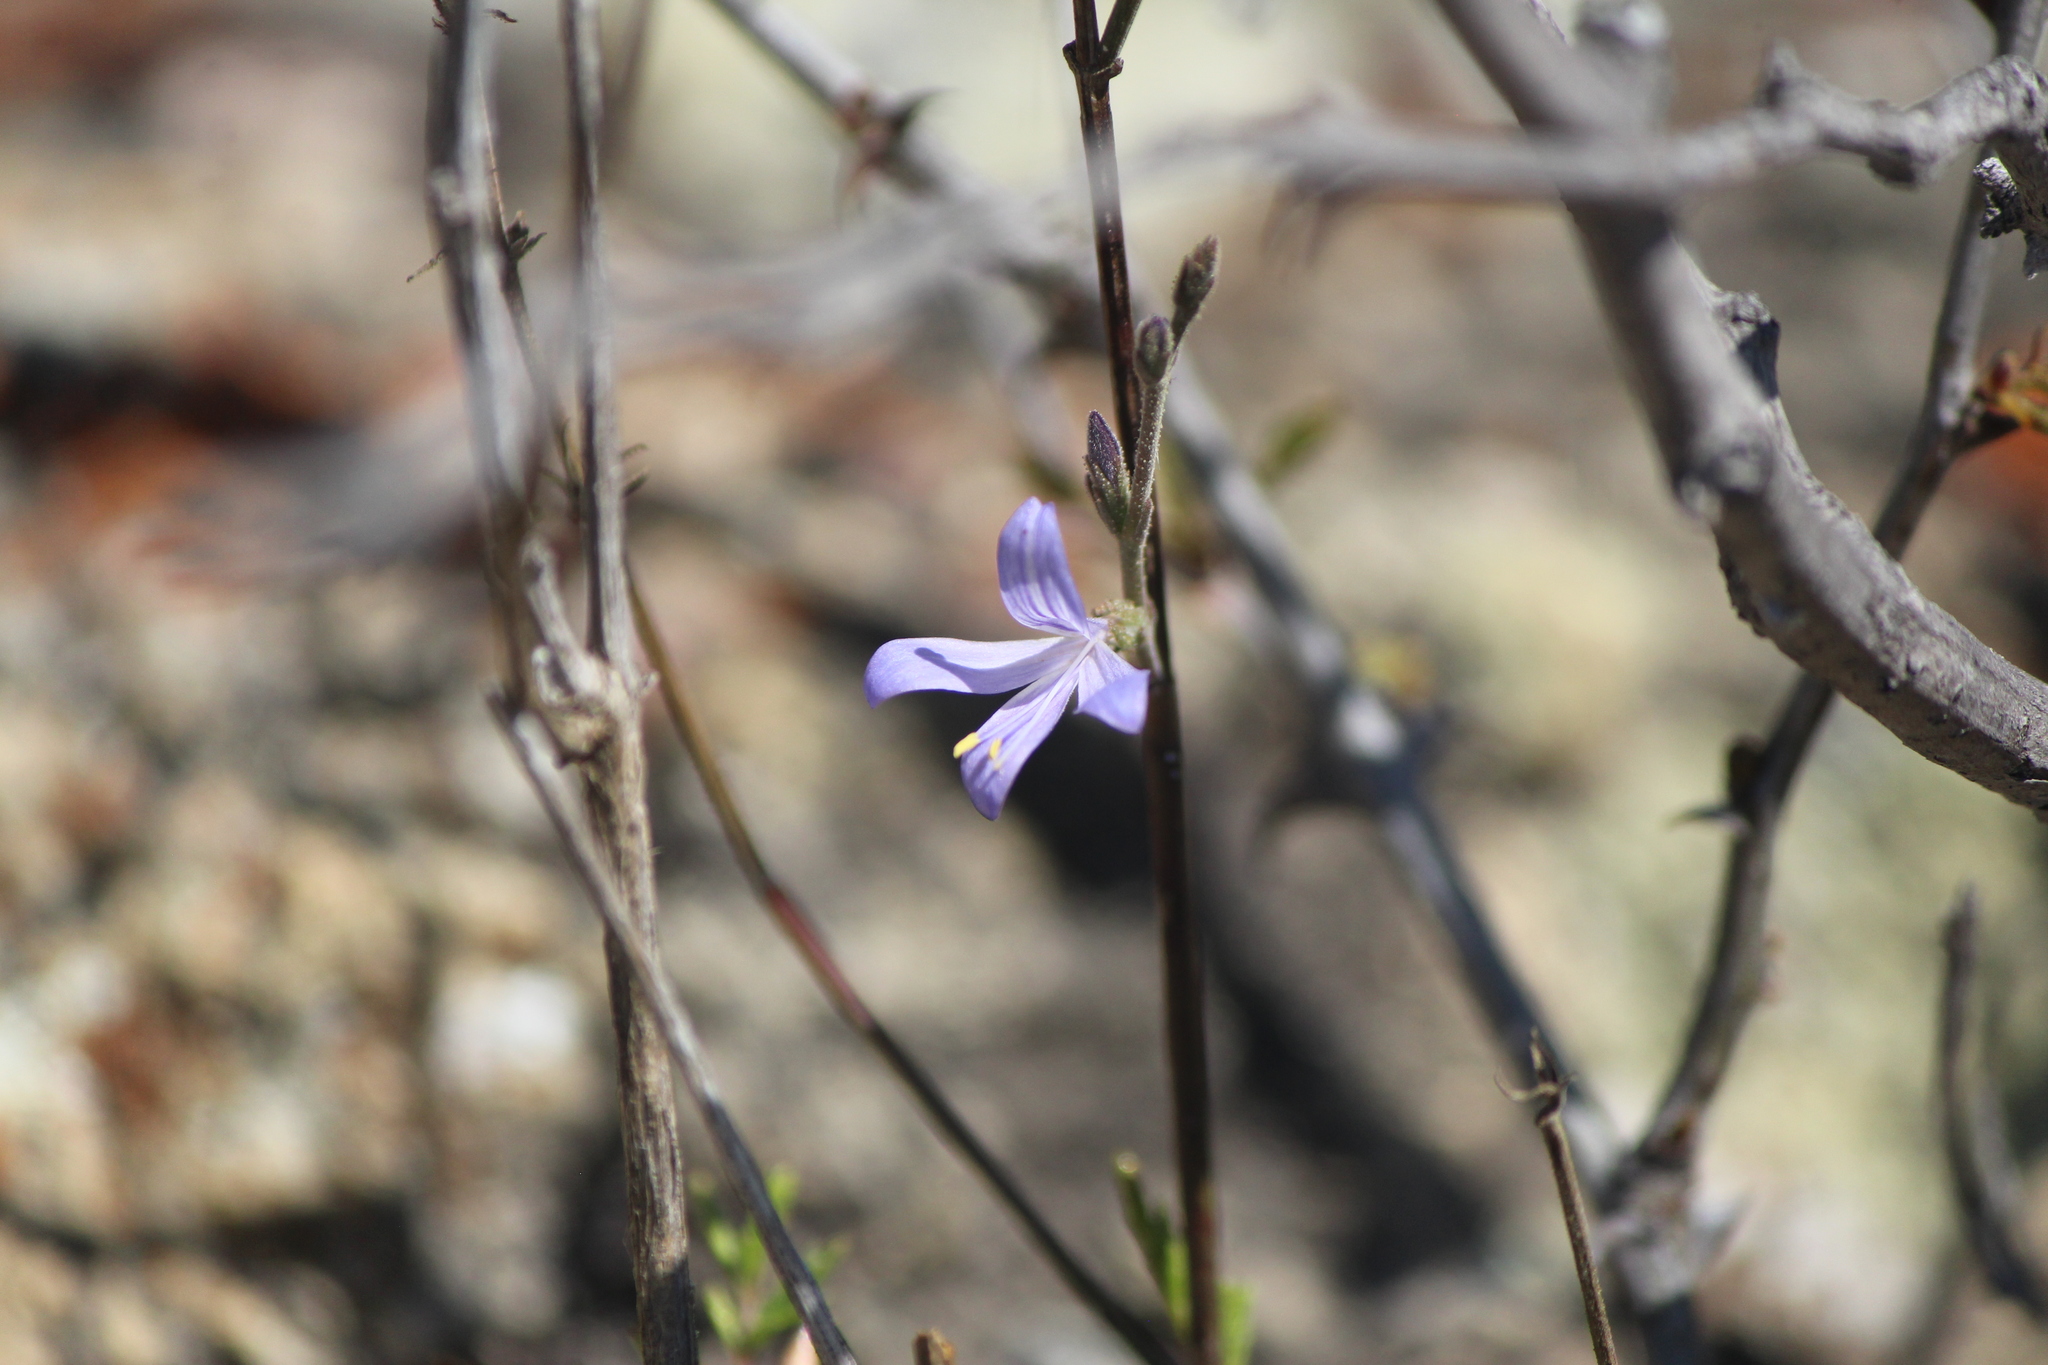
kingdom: Plantae
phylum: Tracheophyta
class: Magnoliopsida
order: Lamiales
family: Acanthaceae
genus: Carlowrightia
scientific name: Carlowrightia parviflora
